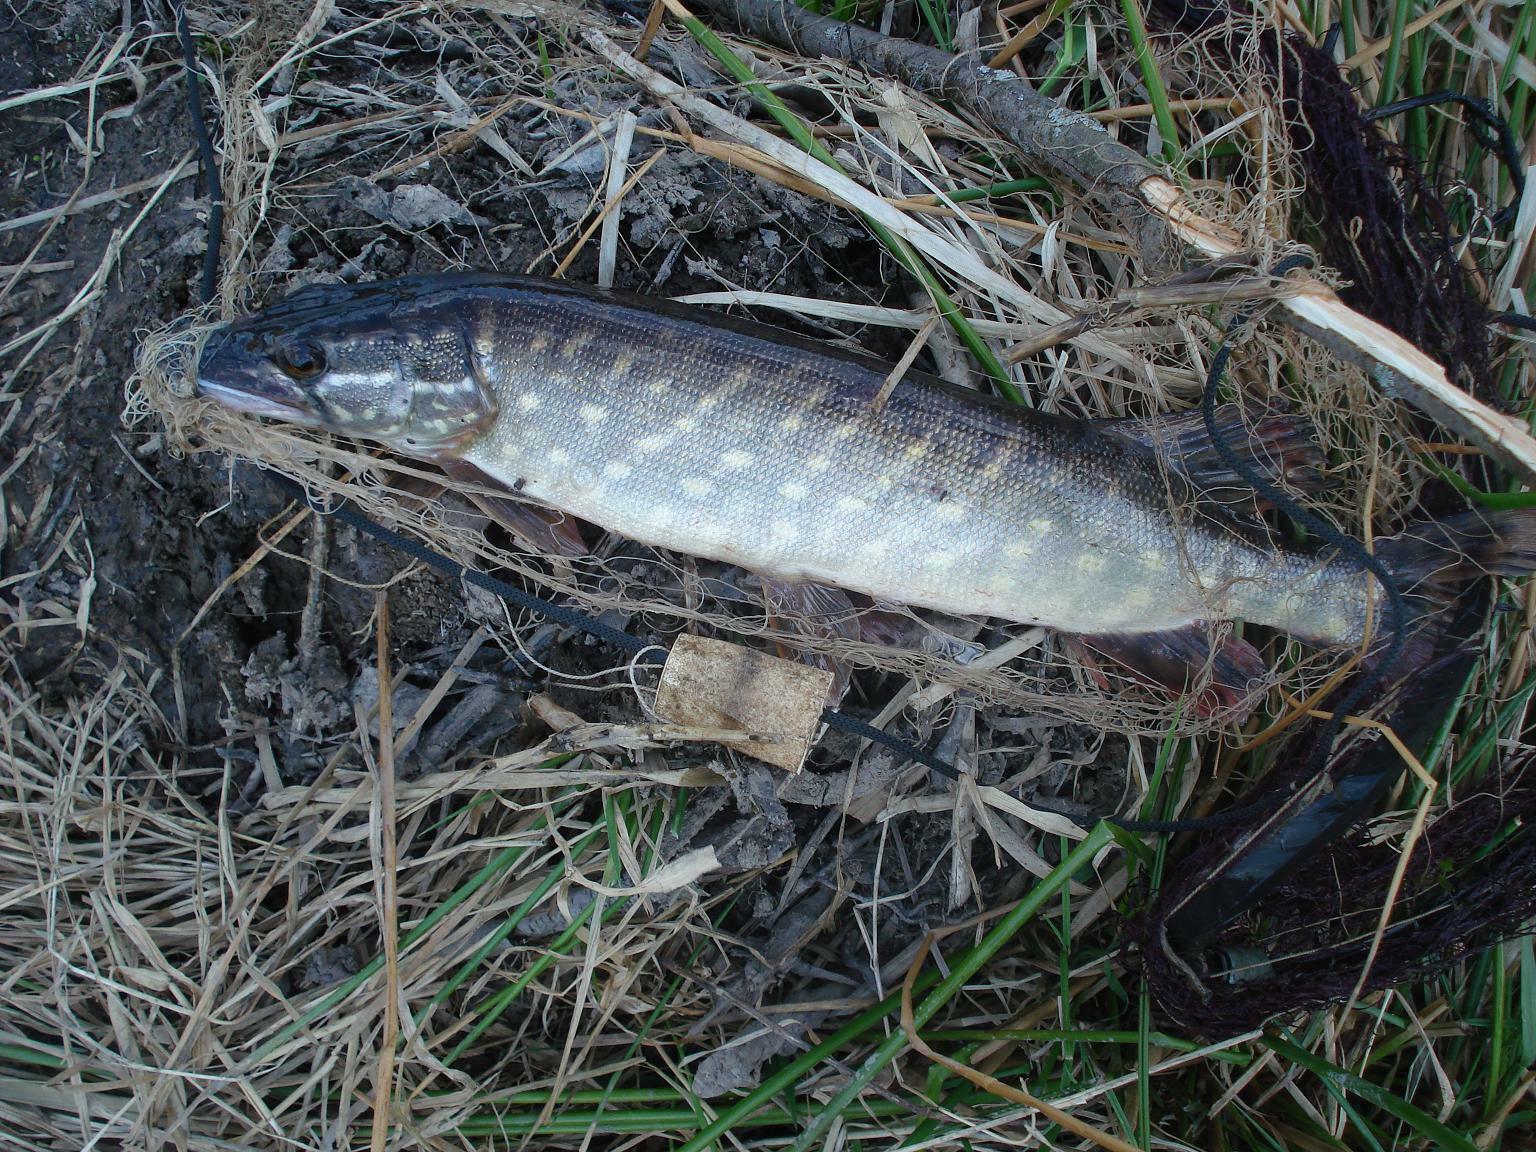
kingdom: Animalia
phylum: Chordata
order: Esociformes
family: Esocidae
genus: Esox
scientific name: Esox lucius
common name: Northern pike
